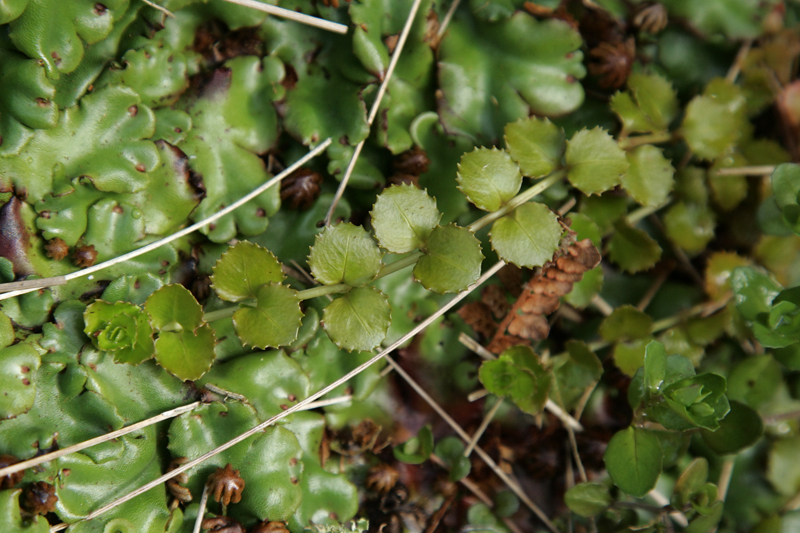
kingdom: Plantae
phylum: Tracheophyta
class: Magnoliopsida
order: Myrtales
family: Onagraceae
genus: Epilobium
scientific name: Epilobium pedunculare
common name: Rockery willowherb
